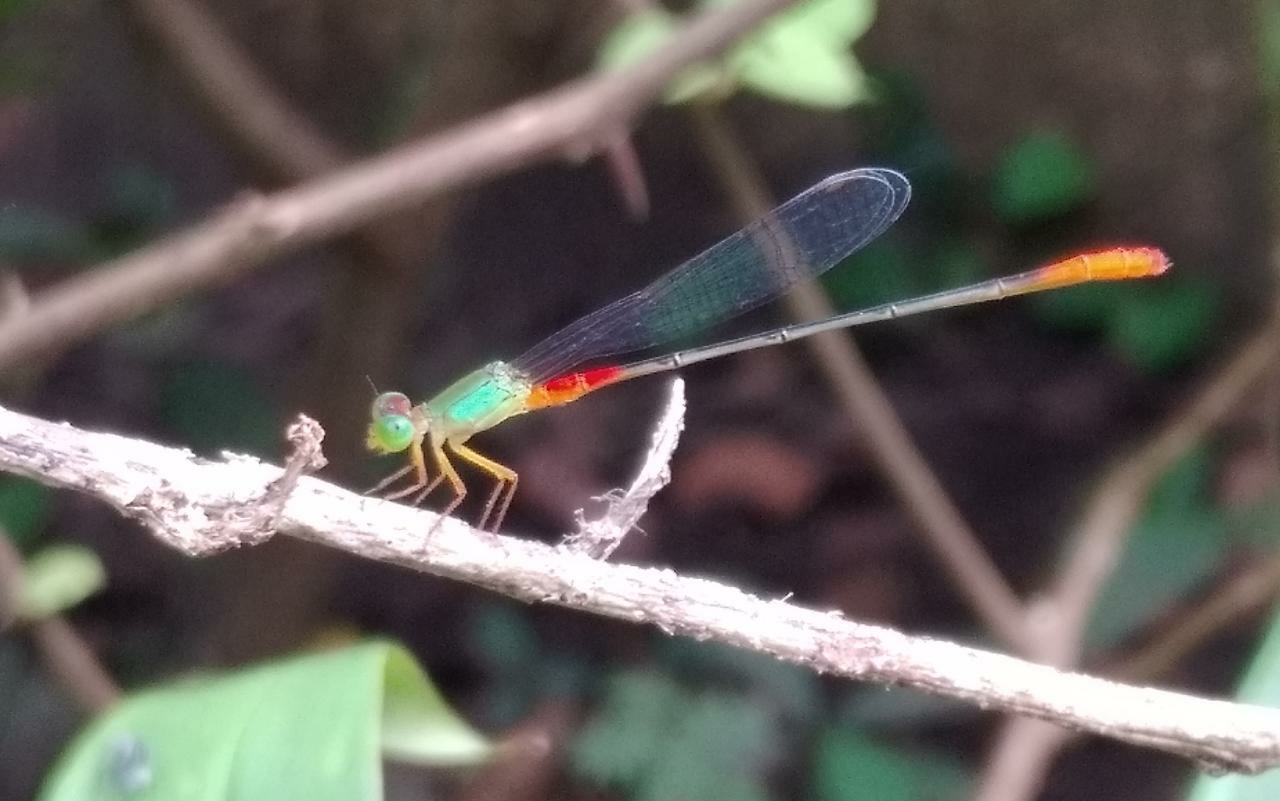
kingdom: Animalia
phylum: Arthropoda
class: Insecta
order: Odonata
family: Coenagrionidae
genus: Ceriagrion
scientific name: Ceriagrion cerinorubellum
